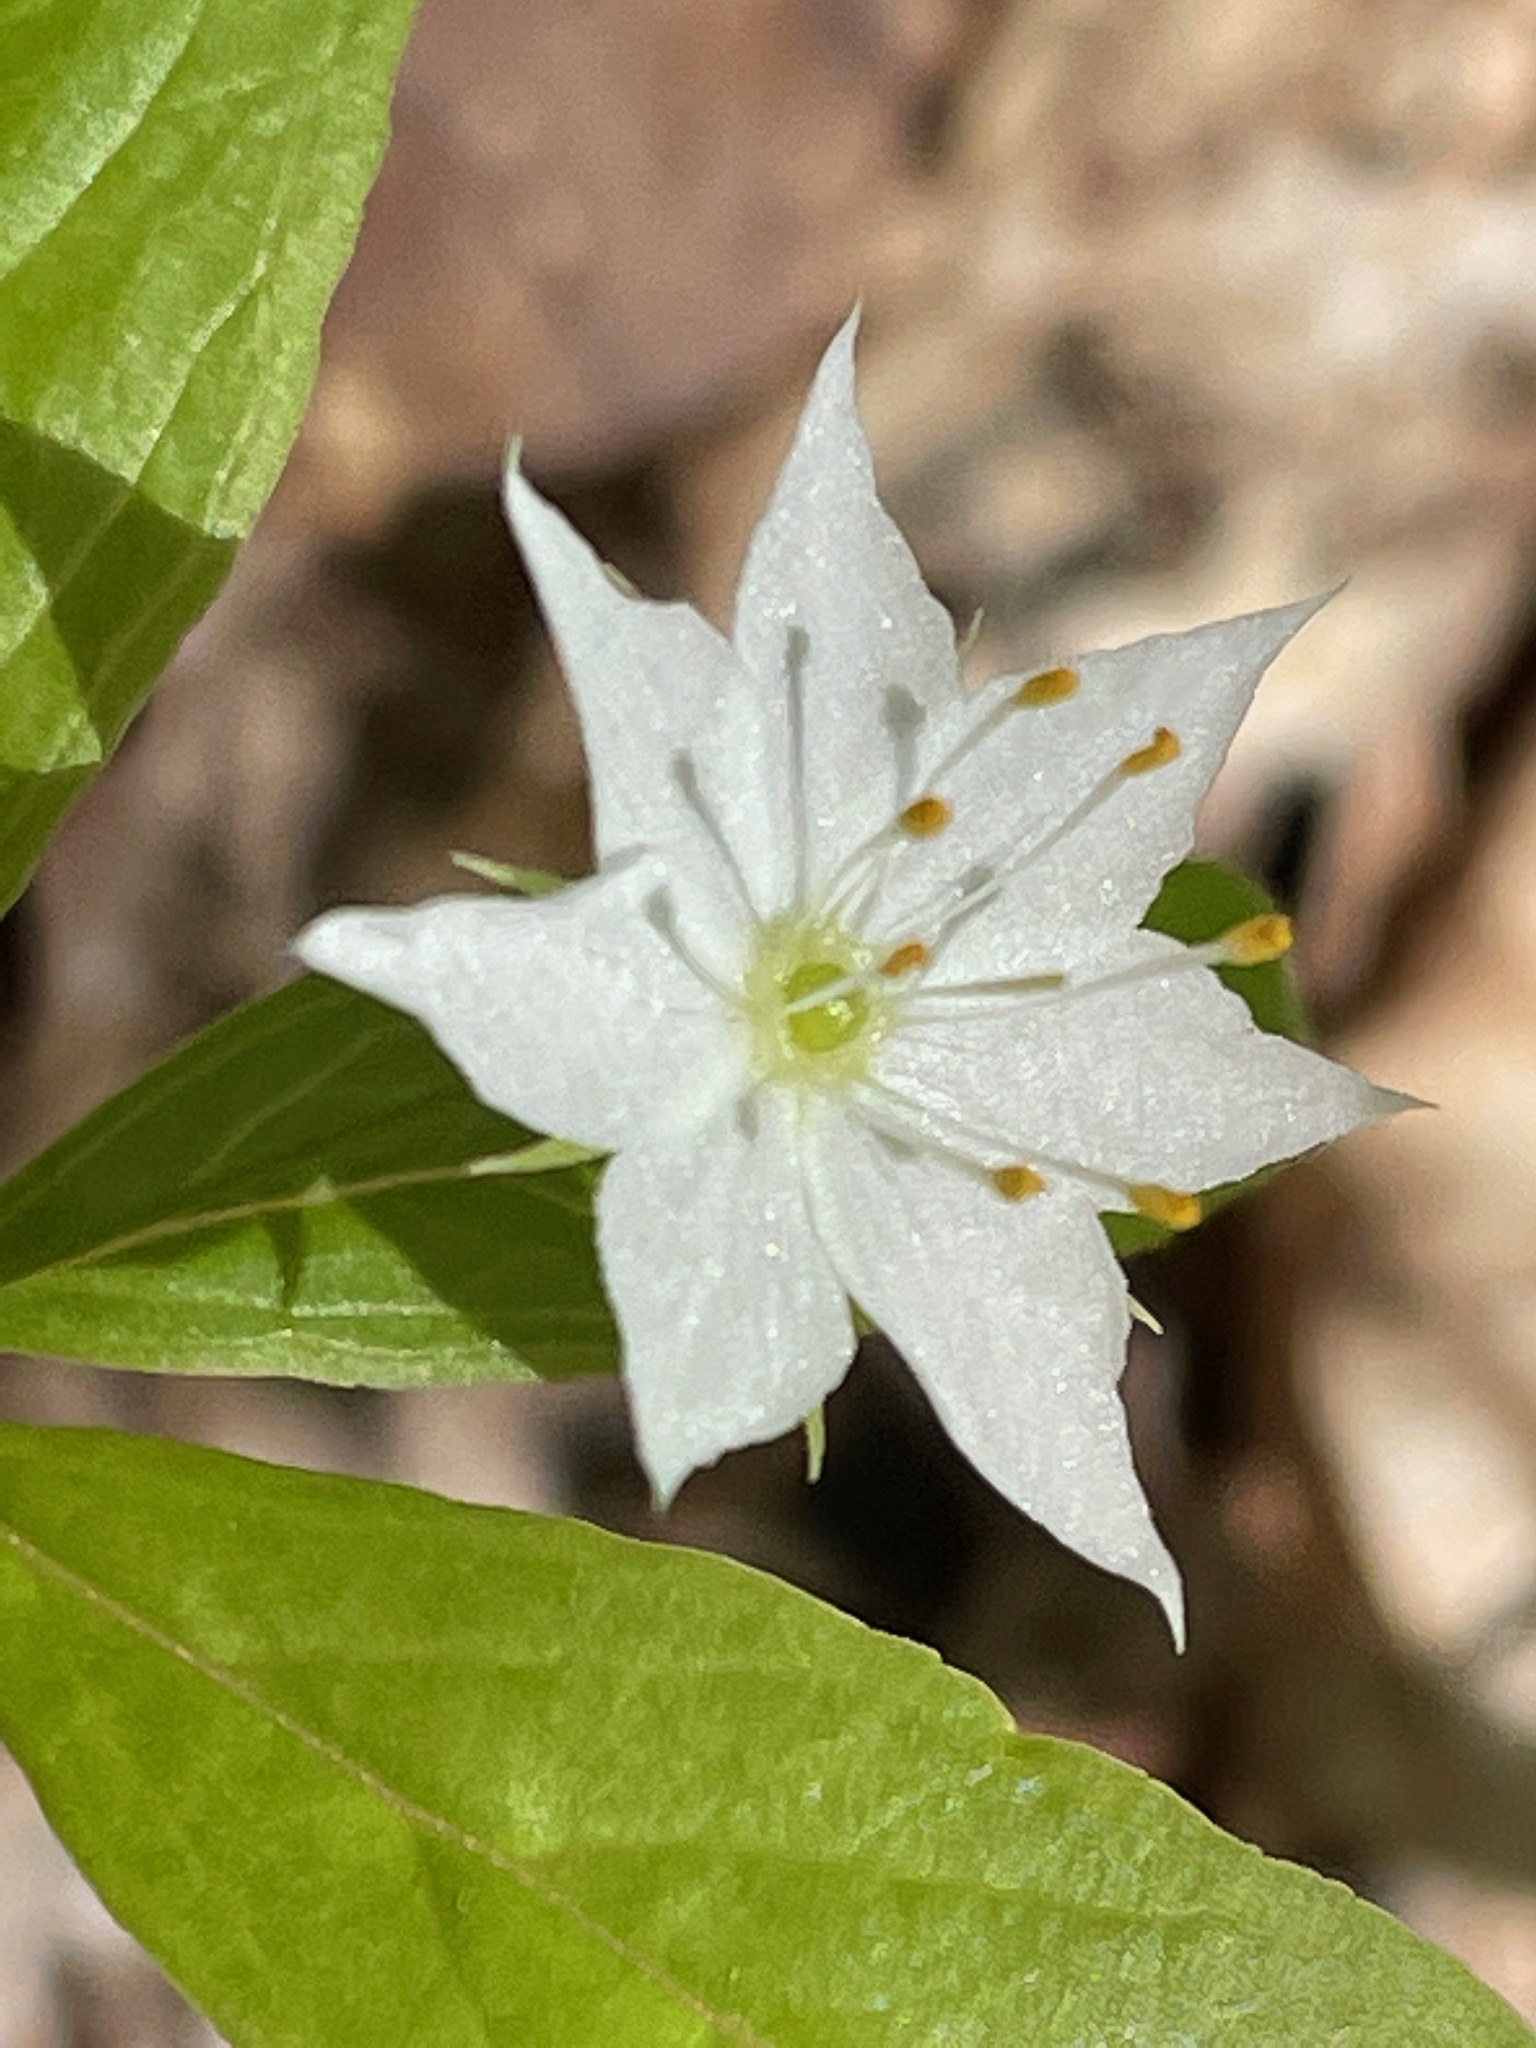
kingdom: Plantae
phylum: Tracheophyta
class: Magnoliopsida
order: Ericales
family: Primulaceae
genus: Lysimachia
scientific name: Lysimachia borealis
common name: American starflower
